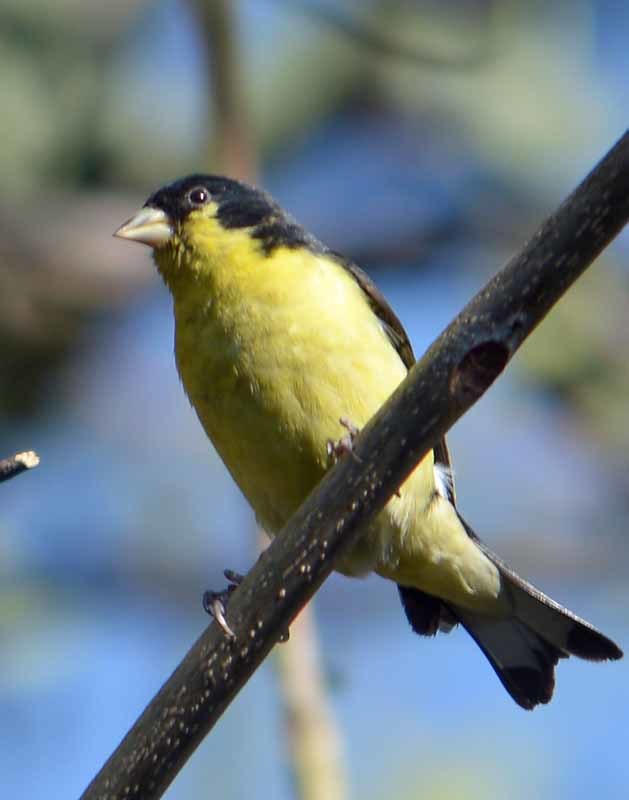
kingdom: Animalia
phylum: Chordata
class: Aves
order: Passeriformes
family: Fringillidae
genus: Spinus
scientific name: Spinus psaltria
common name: Lesser goldfinch
